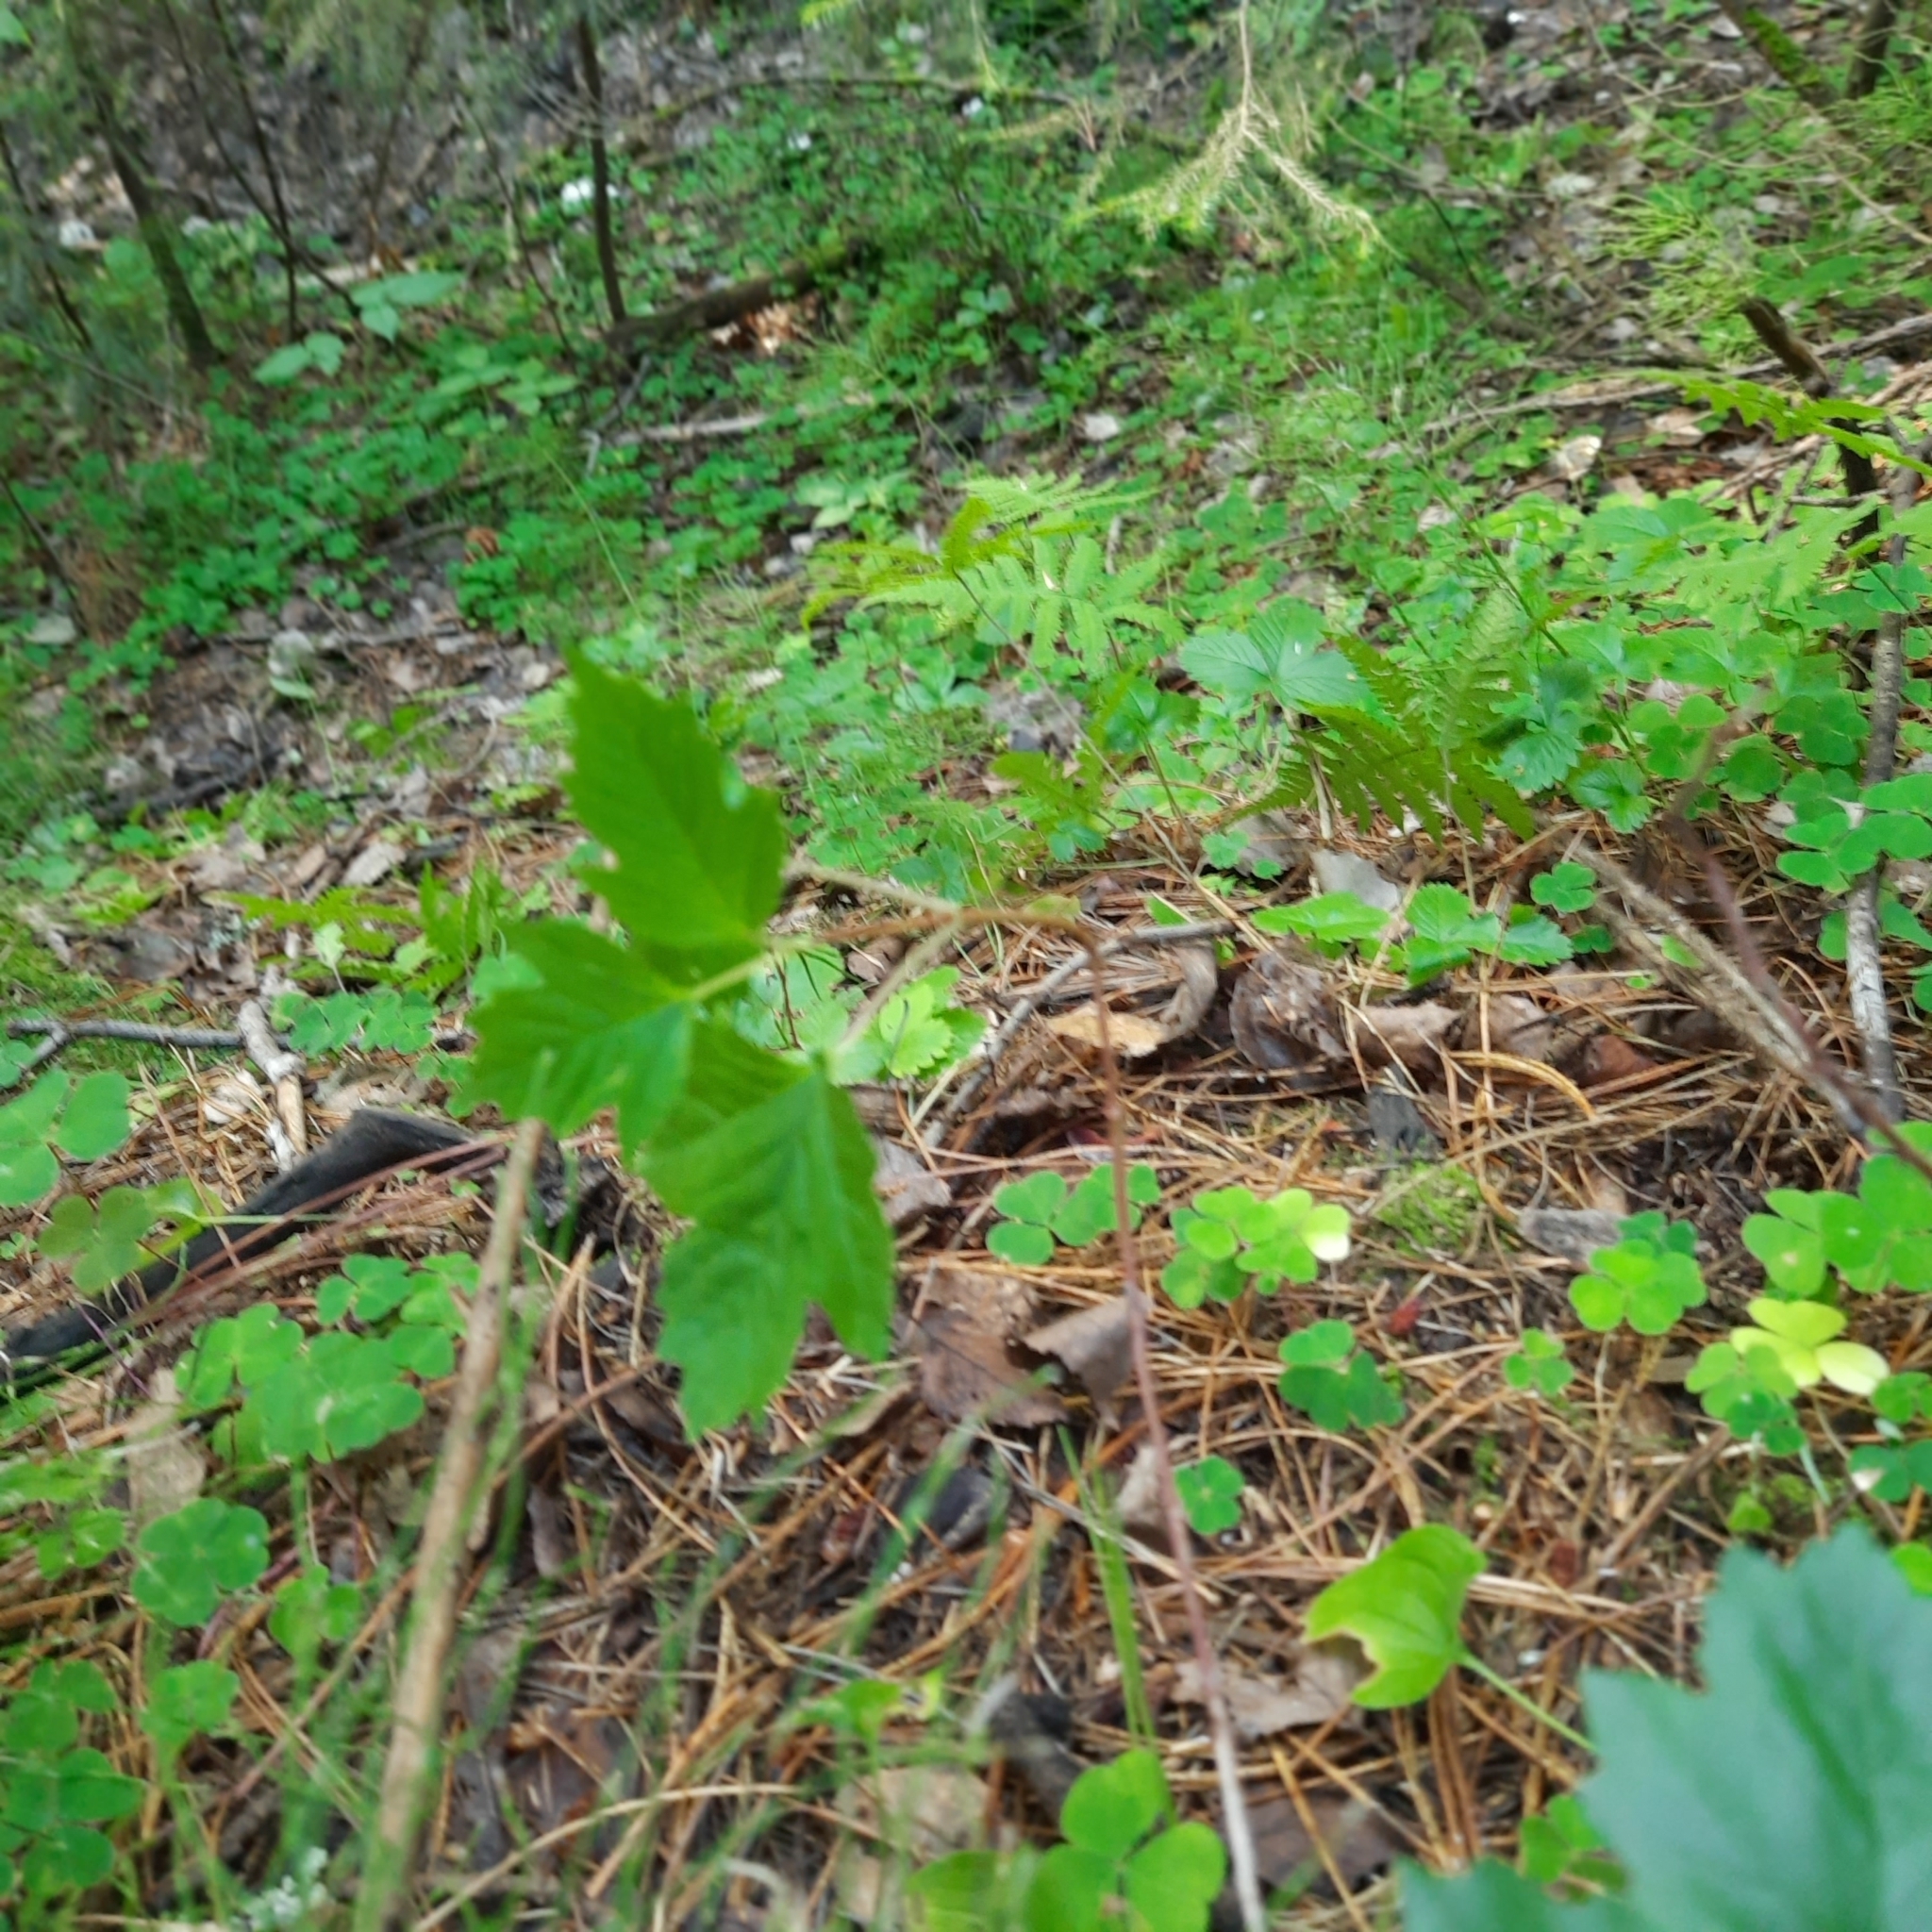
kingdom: Plantae
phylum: Tracheophyta
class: Magnoliopsida
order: Dipsacales
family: Viburnaceae
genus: Viburnum
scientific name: Viburnum opulus
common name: Guelder-rose
